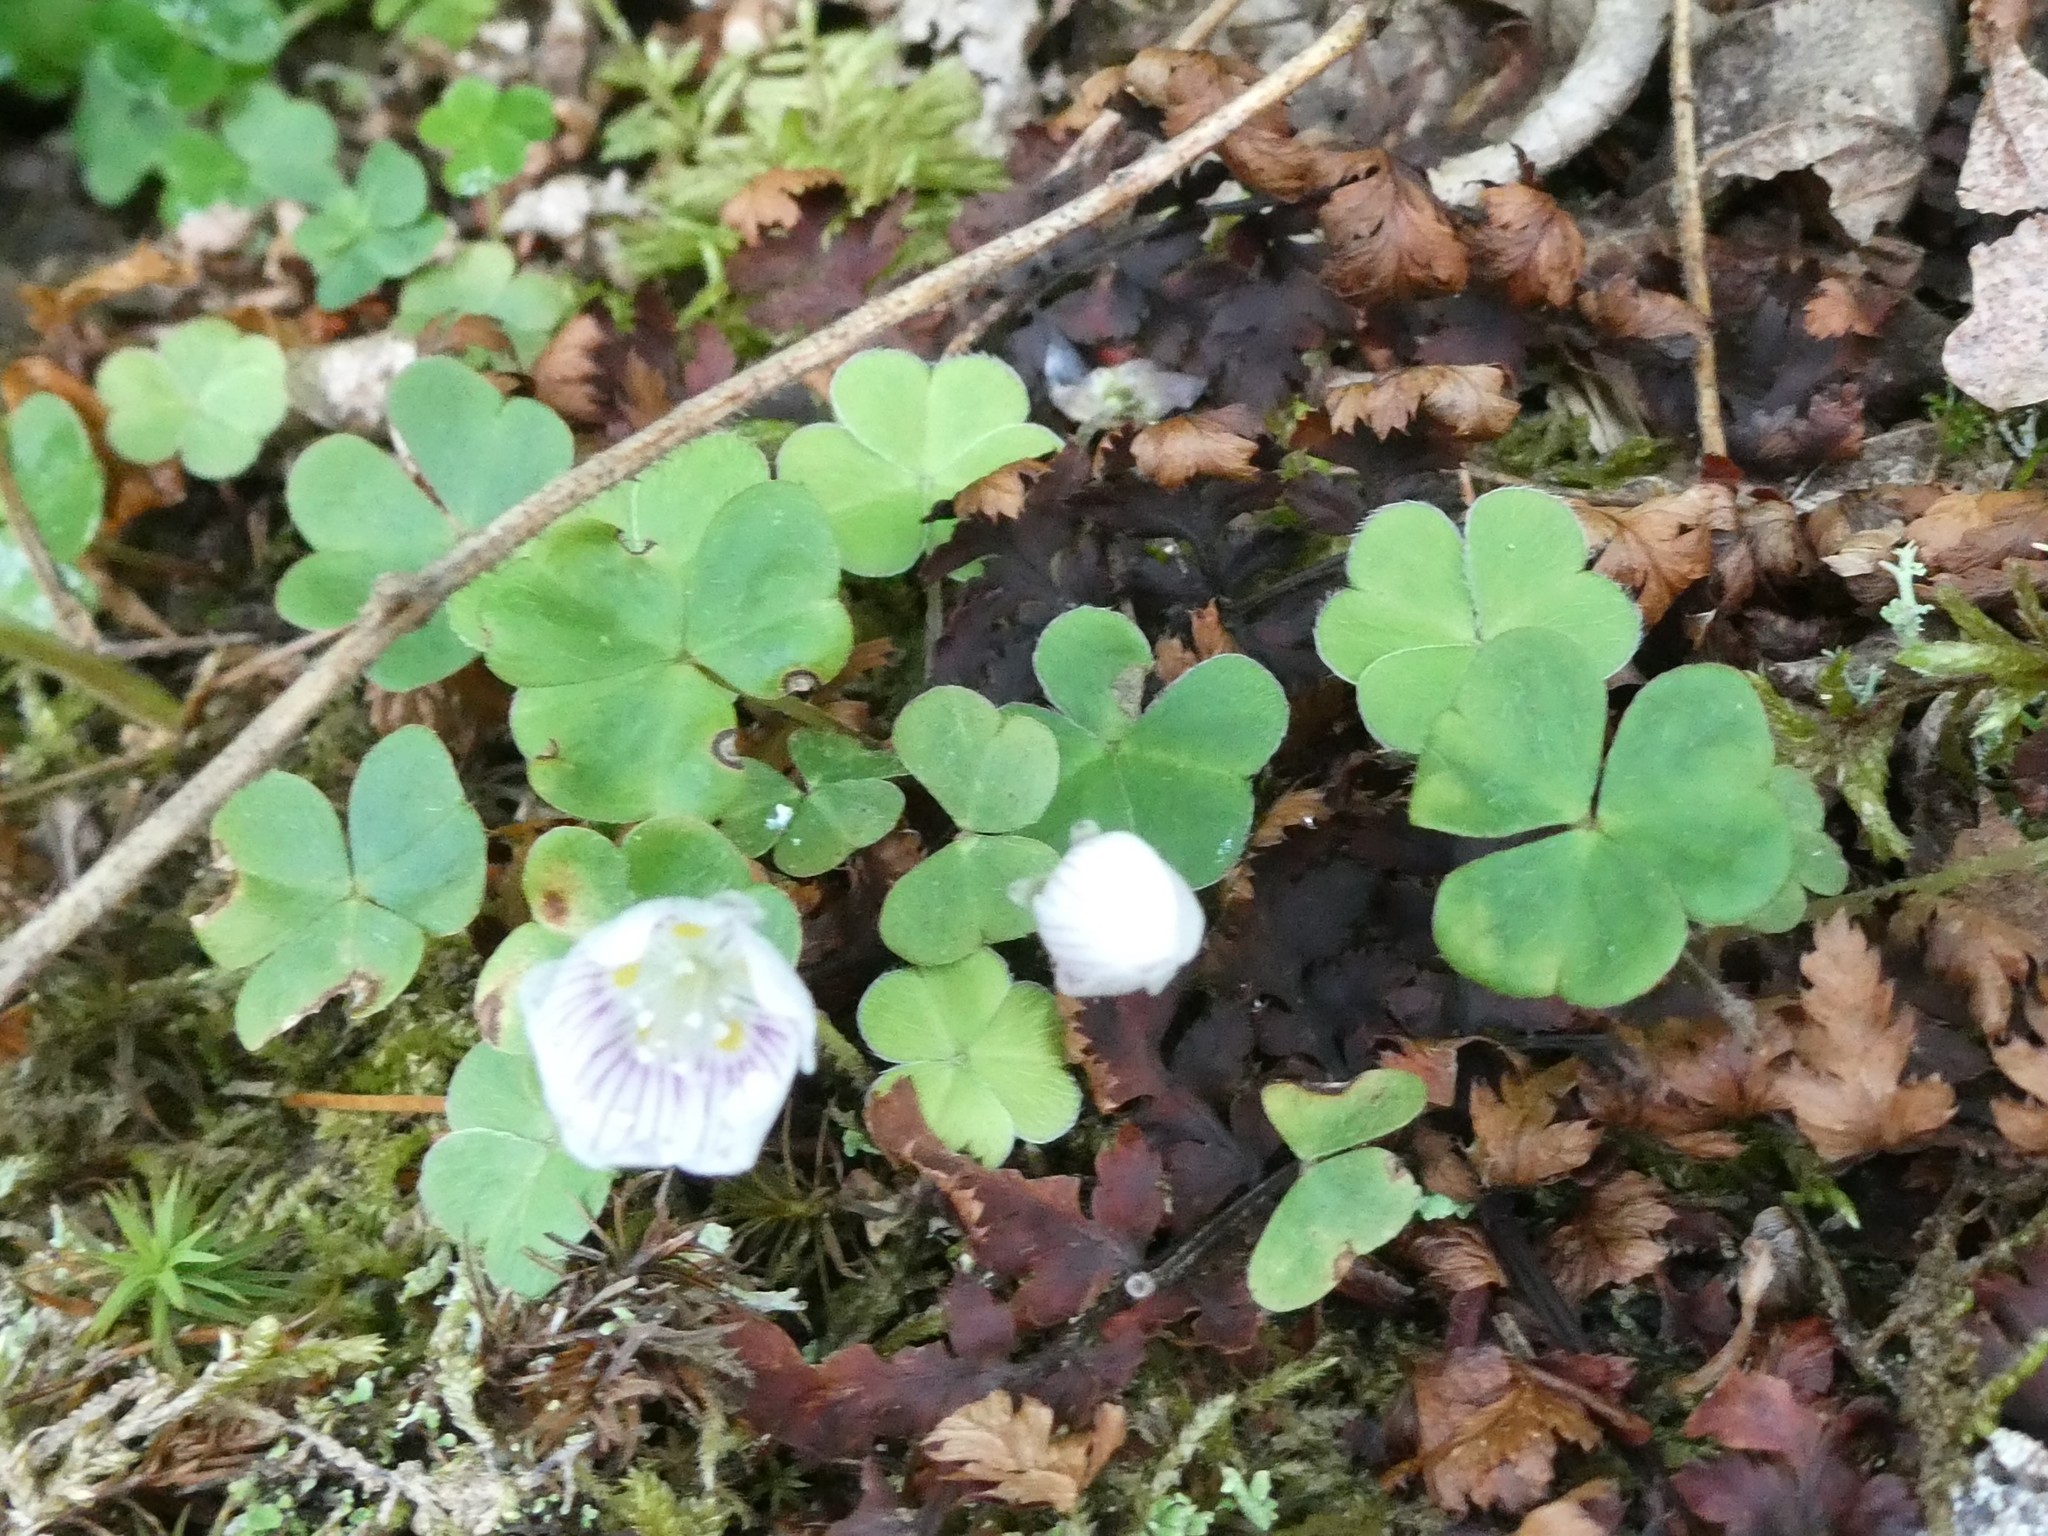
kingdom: Plantae
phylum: Tracheophyta
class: Magnoliopsida
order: Oxalidales
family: Oxalidaceae
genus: Oxalis
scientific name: Oxalis montana
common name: American wood-sorrel
